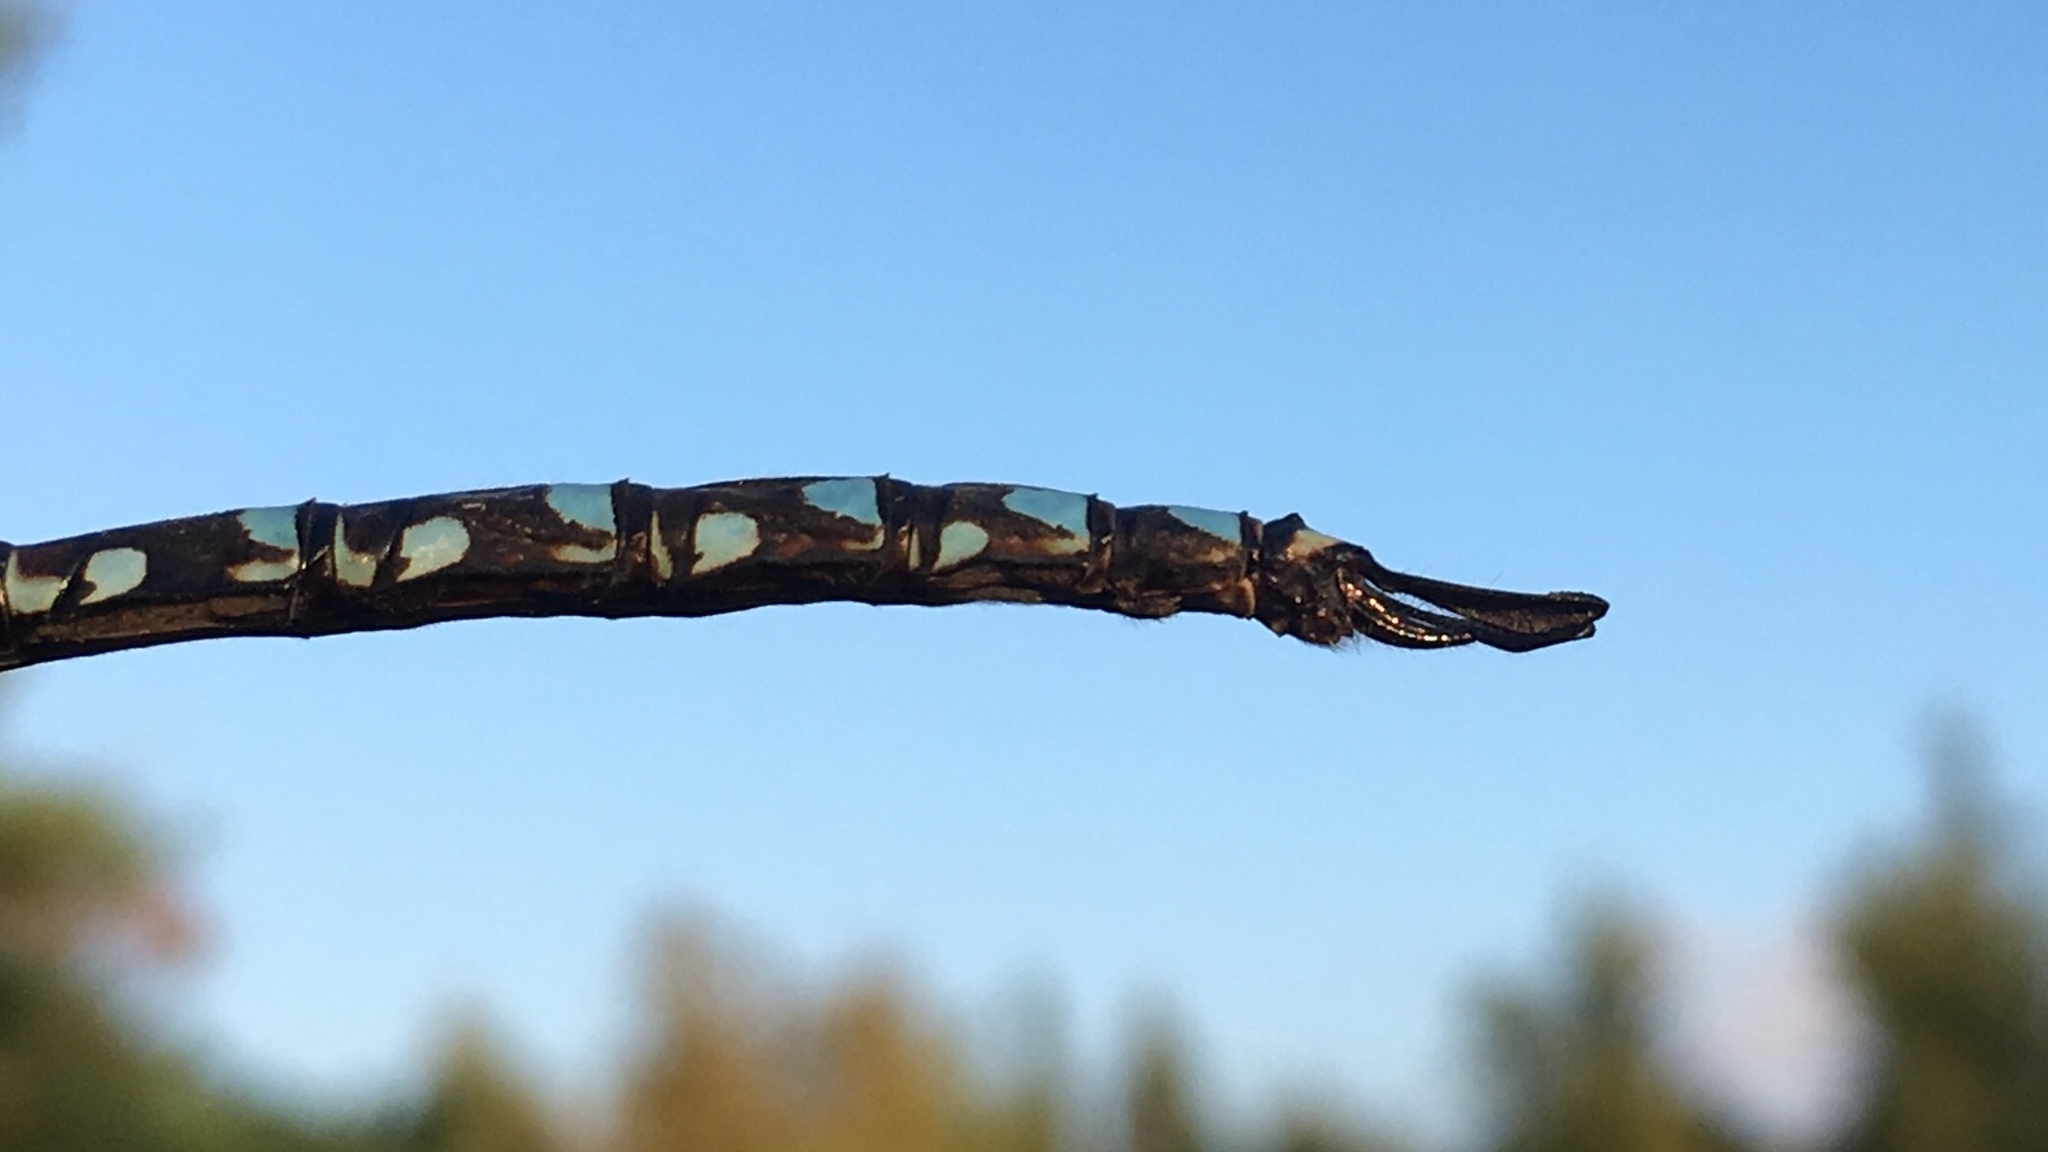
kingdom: Animalia
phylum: Arthropoda
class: Insecta
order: Odonata
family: Aeshnidae
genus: Aeshna
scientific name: Aeshna eremita
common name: Lake darner
